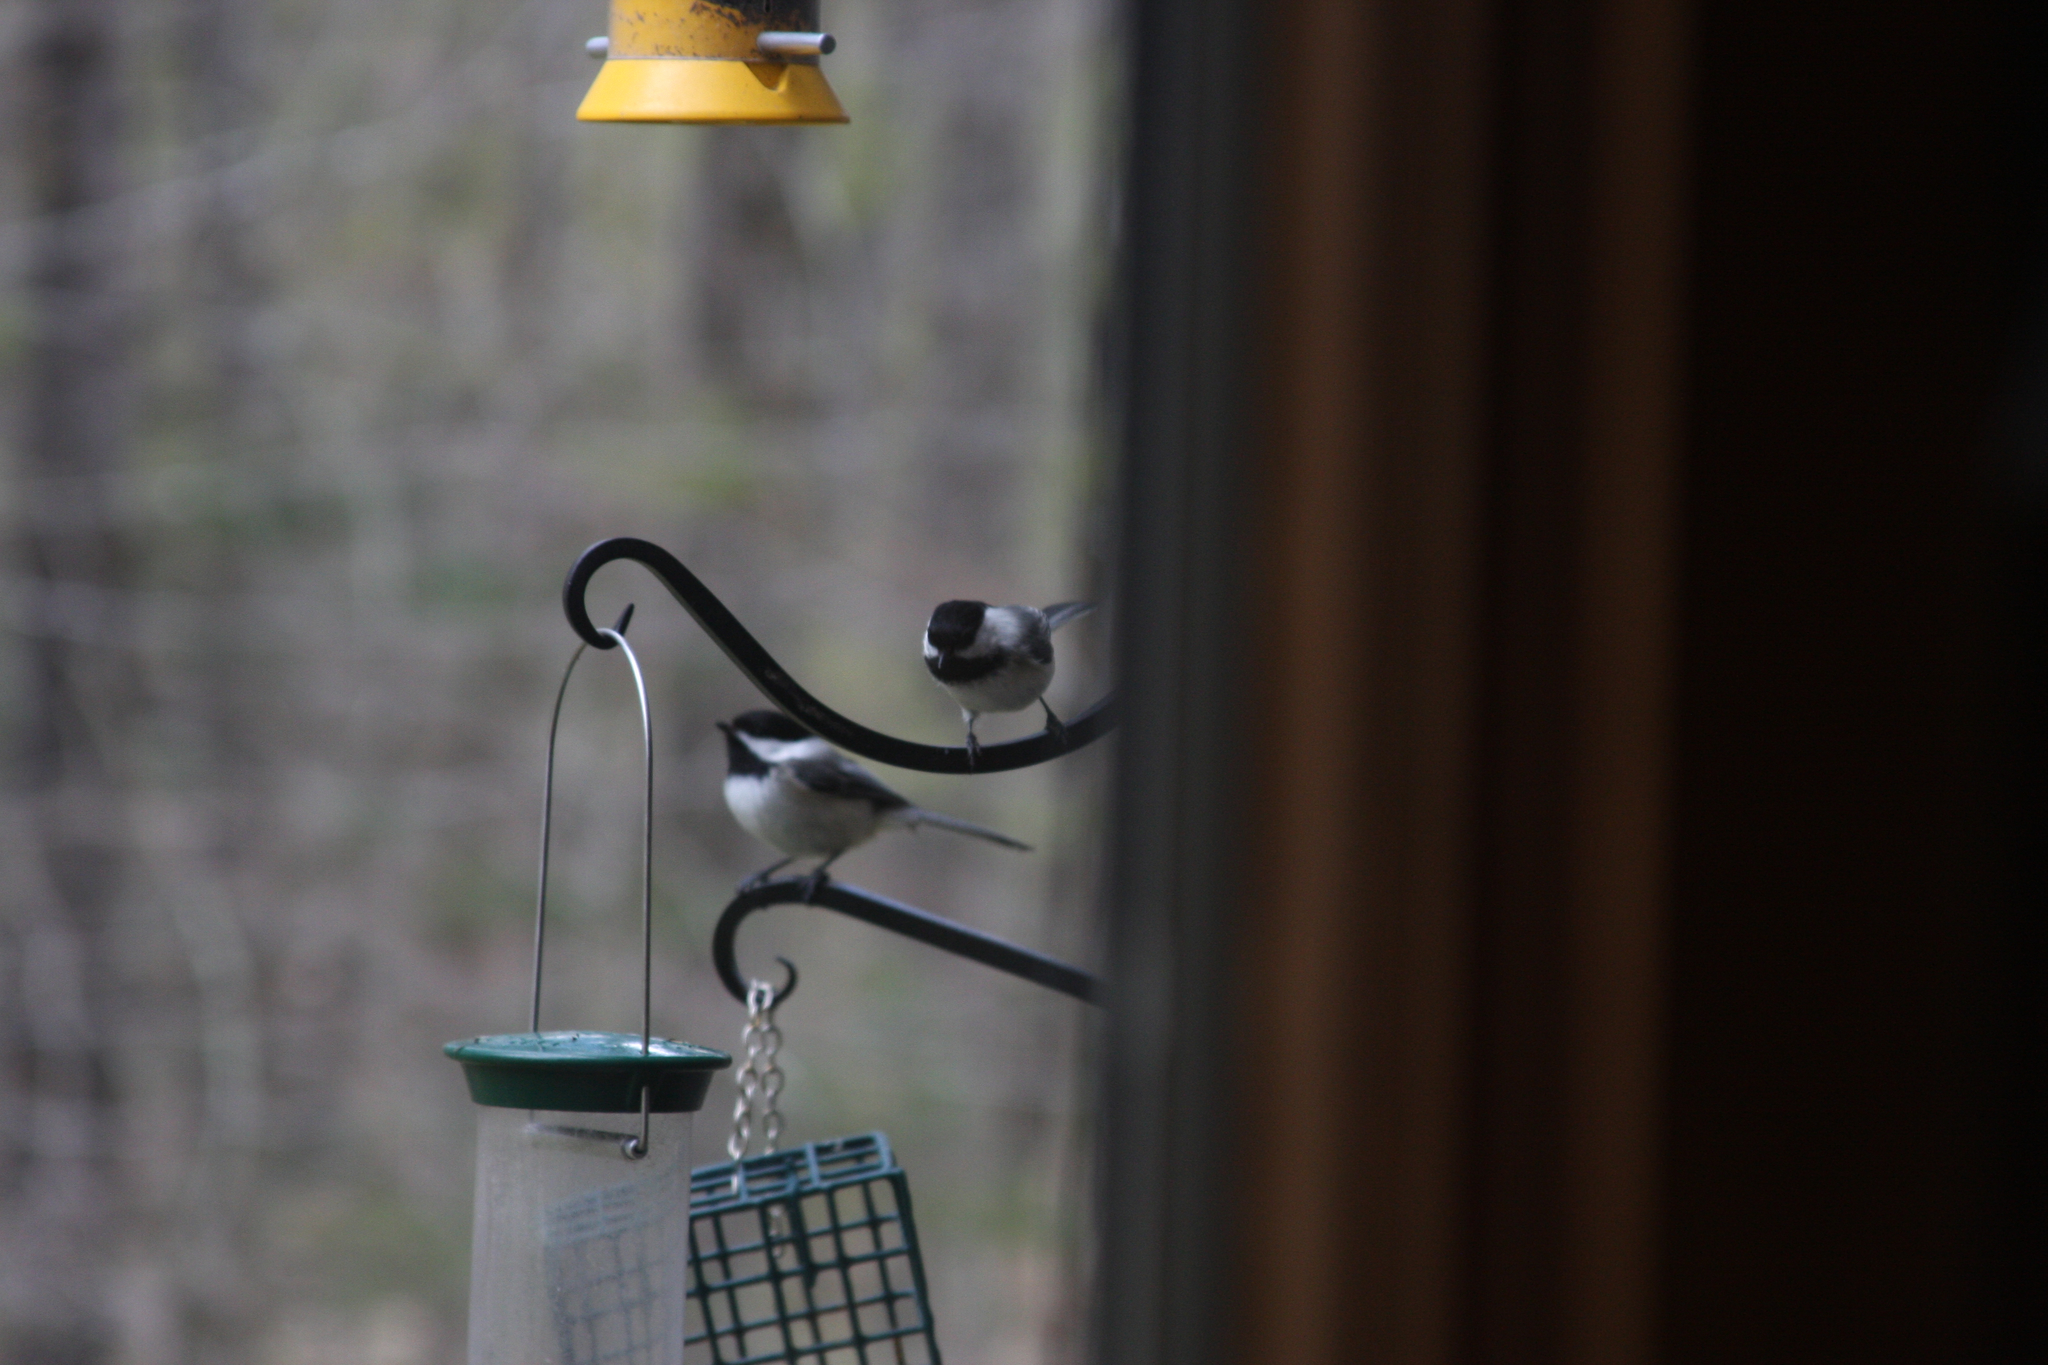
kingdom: Animalia
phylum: Chordata
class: Aves
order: Passeriformes
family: Paridae
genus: Poecile
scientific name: Poecile atricapillus
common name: Black-capped chickadee
